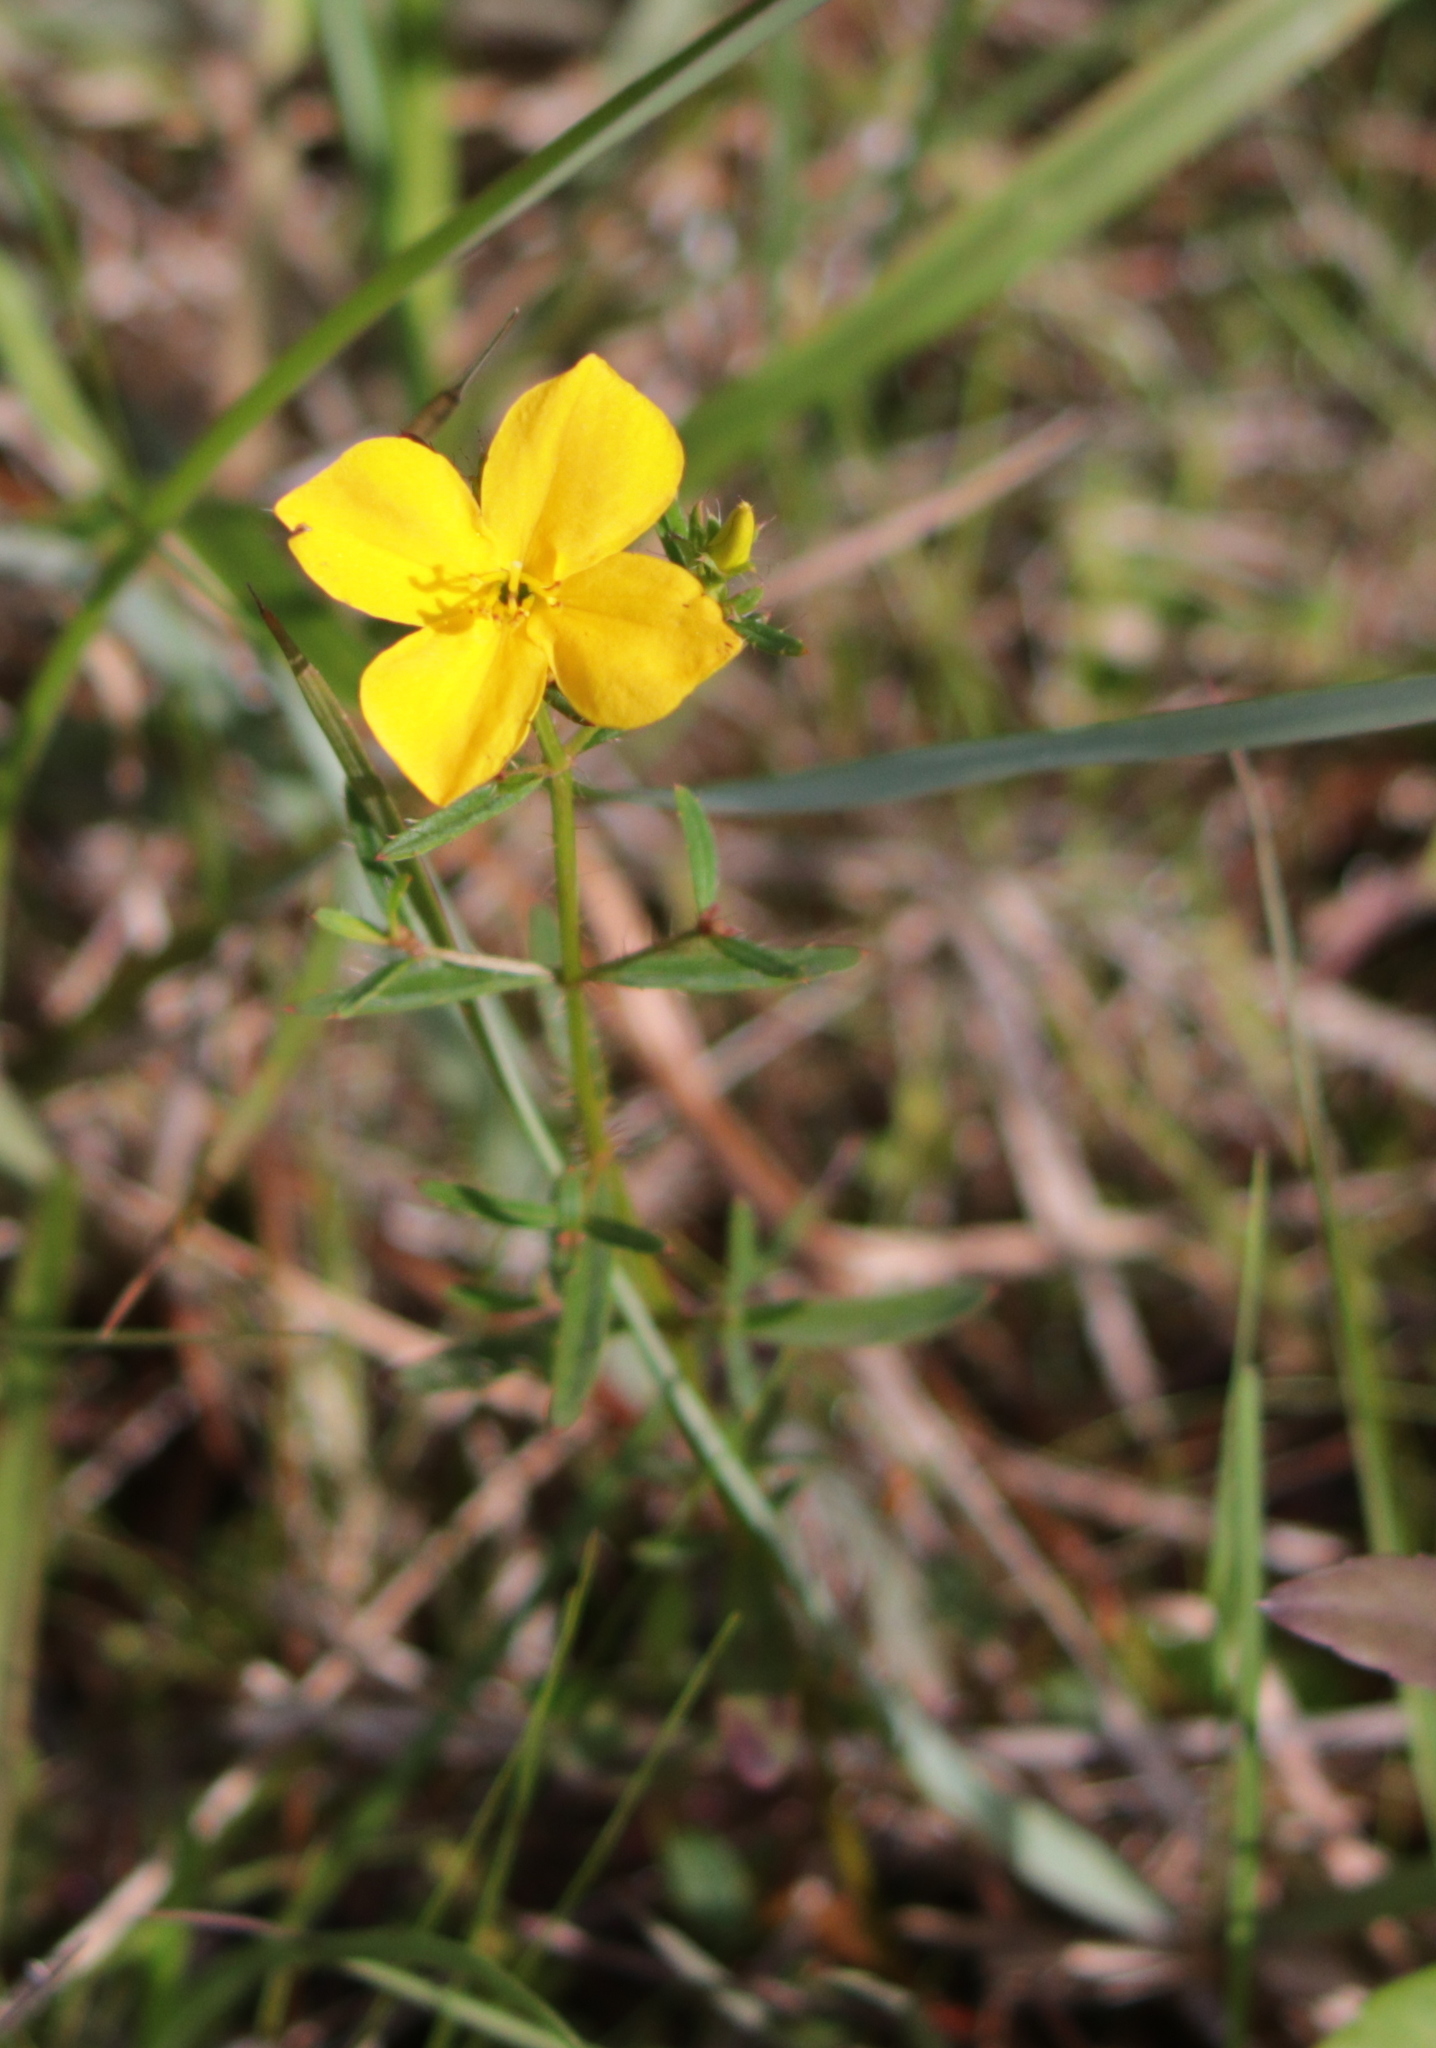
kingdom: Plantae
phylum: Tracheophyta
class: Magnoliopsida
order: Myrtales
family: Melastomataceae
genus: Rhexia
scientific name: Rhexia lutea
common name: Golden meadow-beauty
